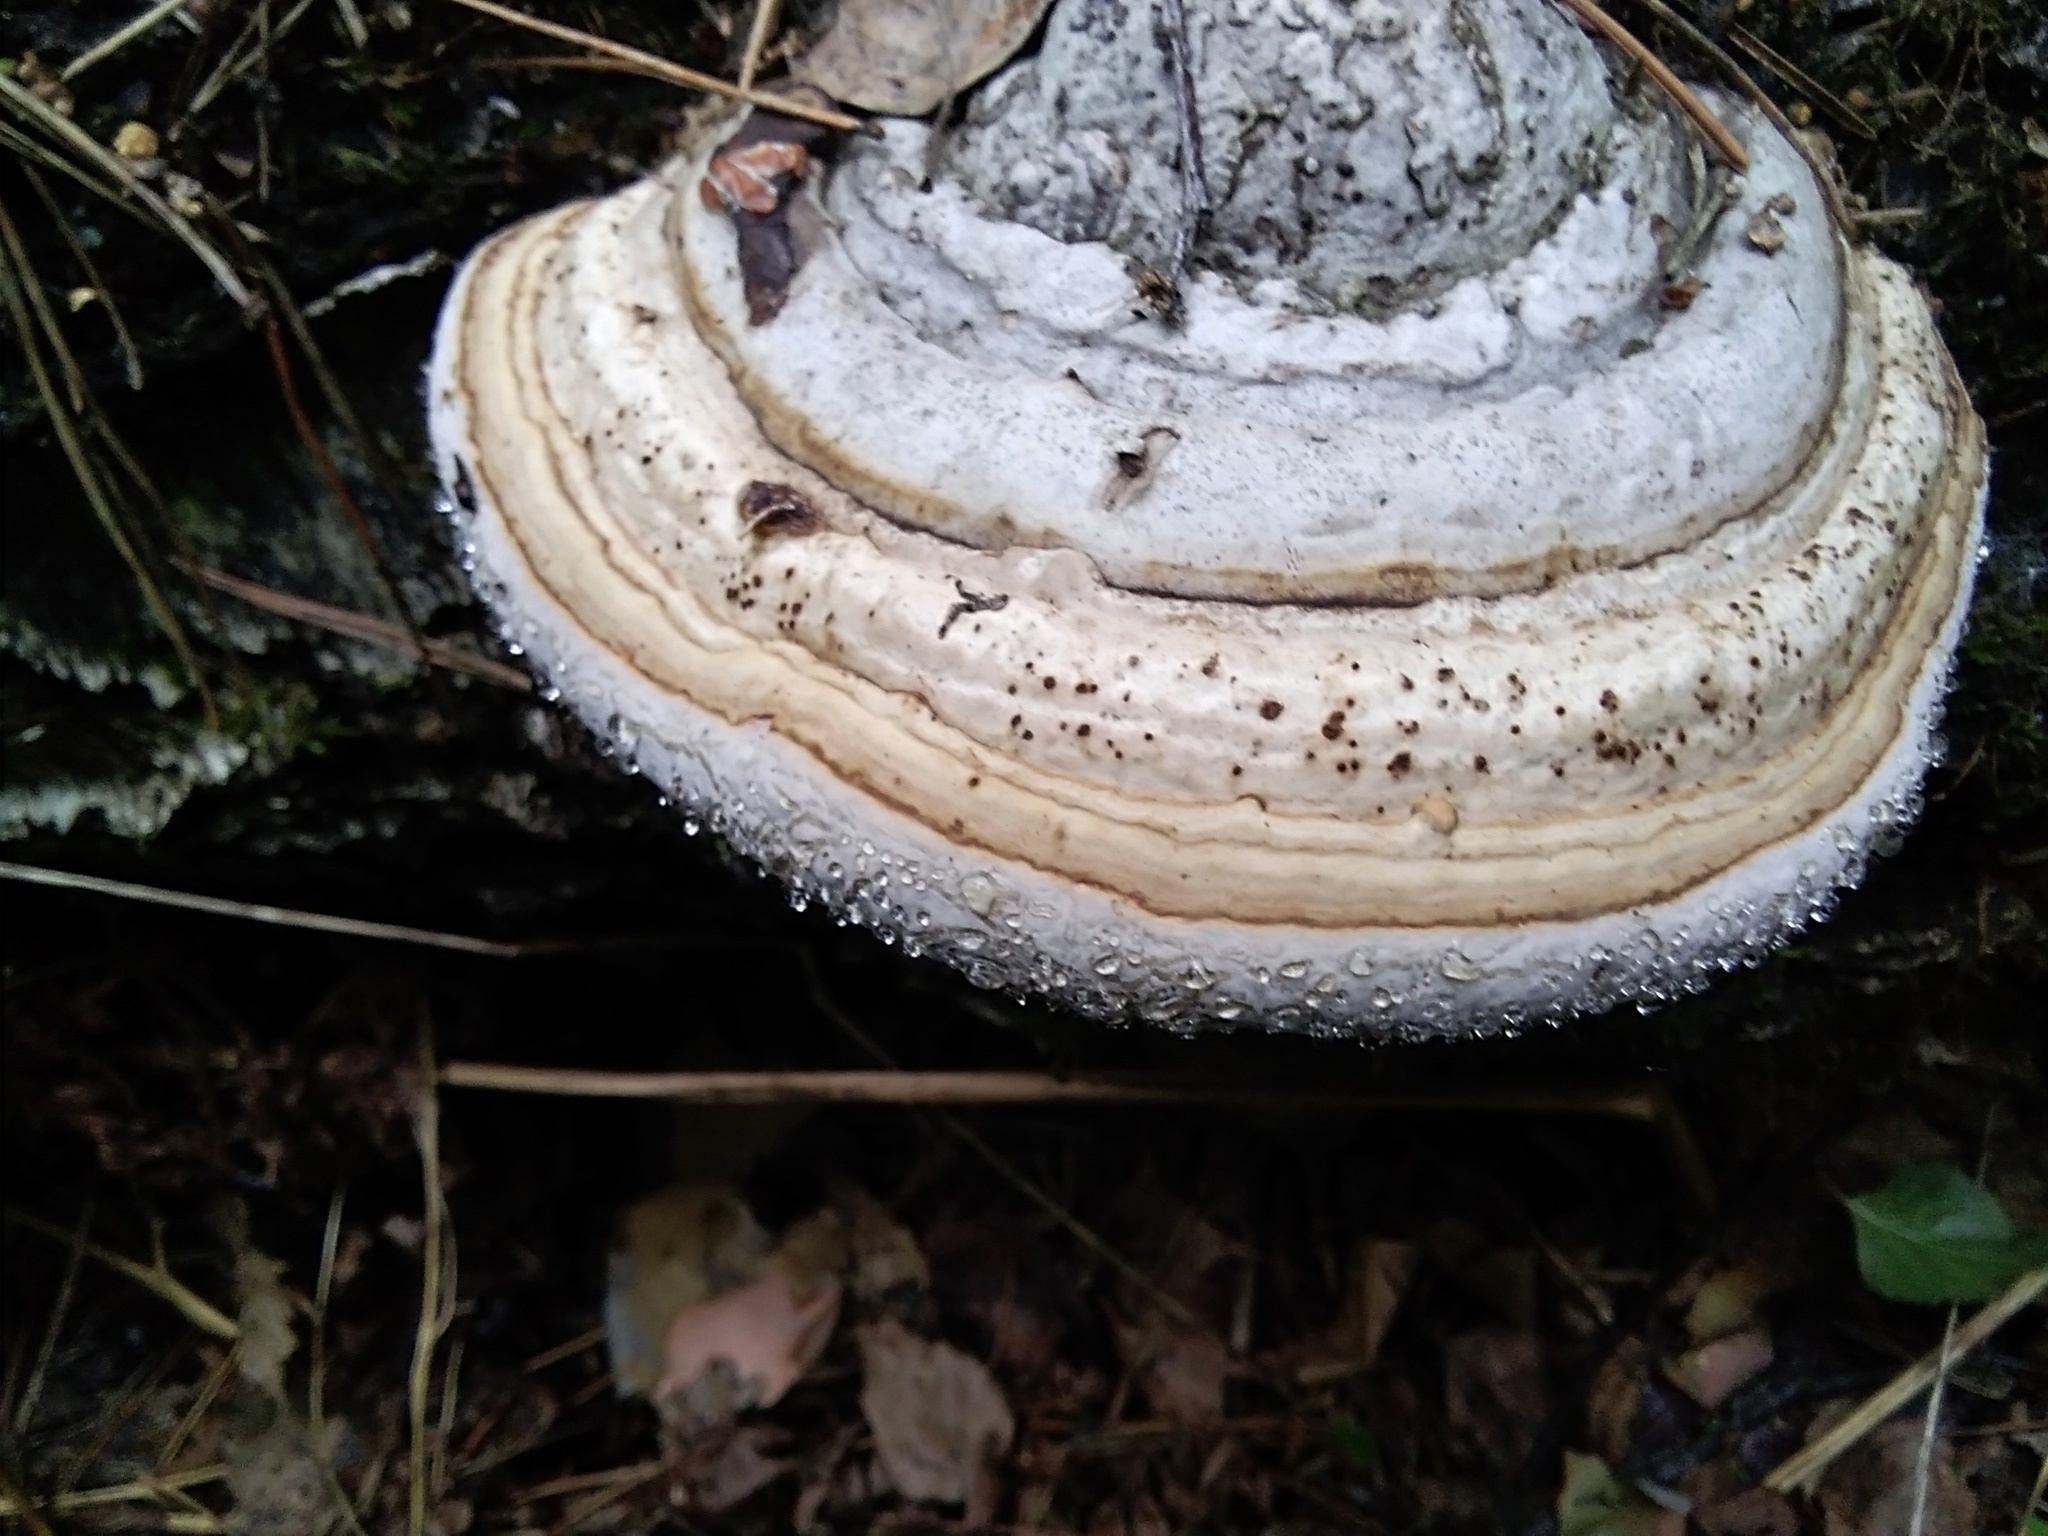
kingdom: Fungi
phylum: Basidiomycota
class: Agaricomycetes
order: Polyporales
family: Polyporaceae
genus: Fomes
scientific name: Fomes fomentarius
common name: Hoof fungus
